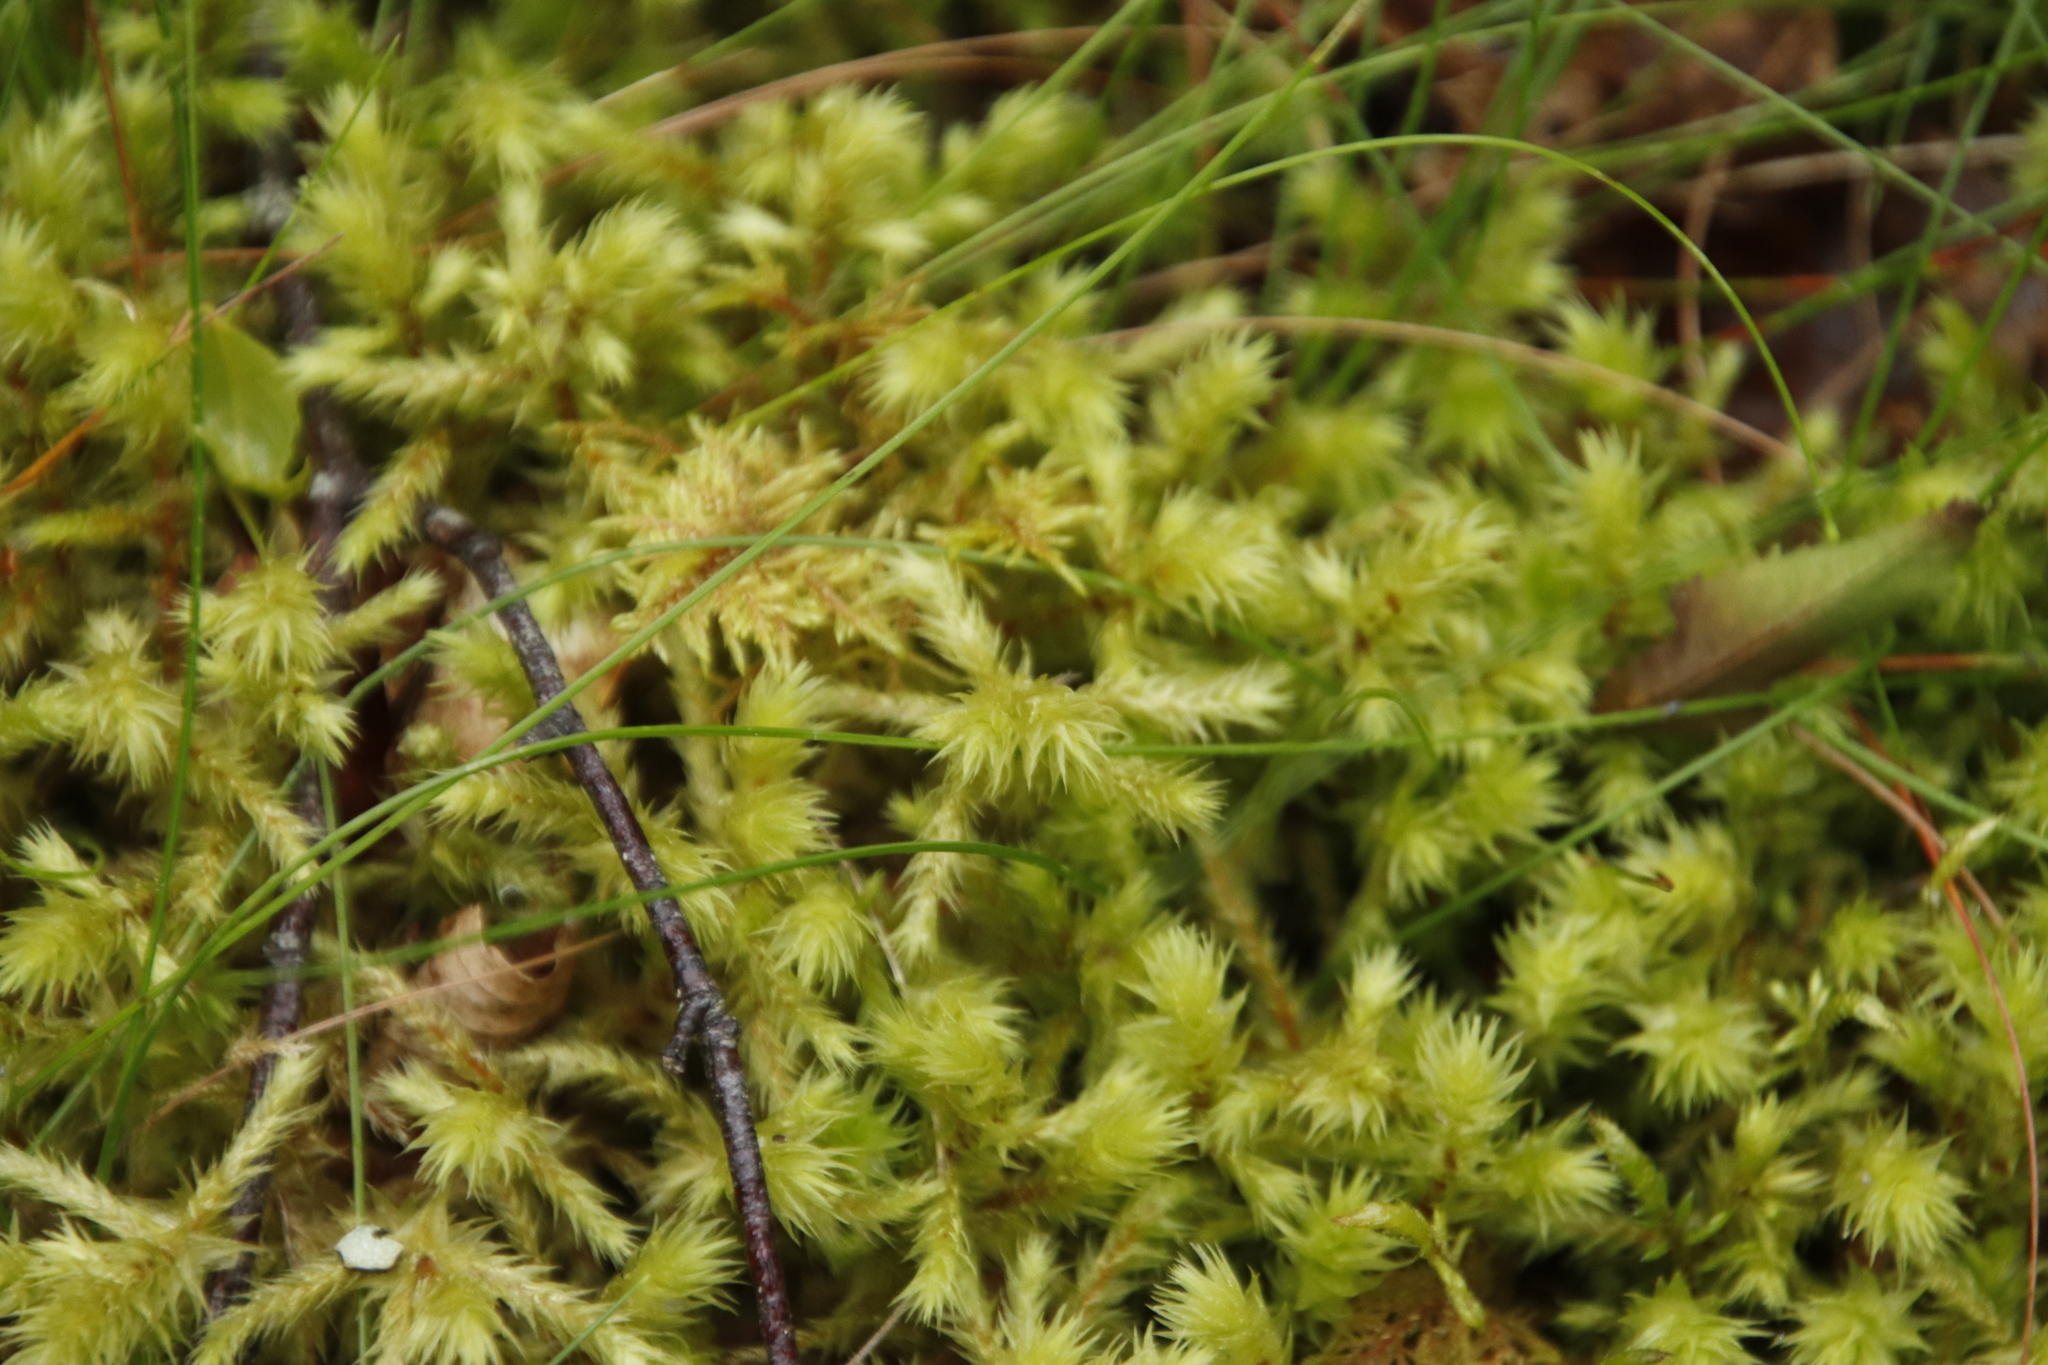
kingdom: Plantae
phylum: Bryophyta
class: Bryopsida
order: Hypnales
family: Hylocomiaceae
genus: Hylocomiadelphus
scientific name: Hylocomiadelphus triquetrus
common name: Rough goose neck moss
